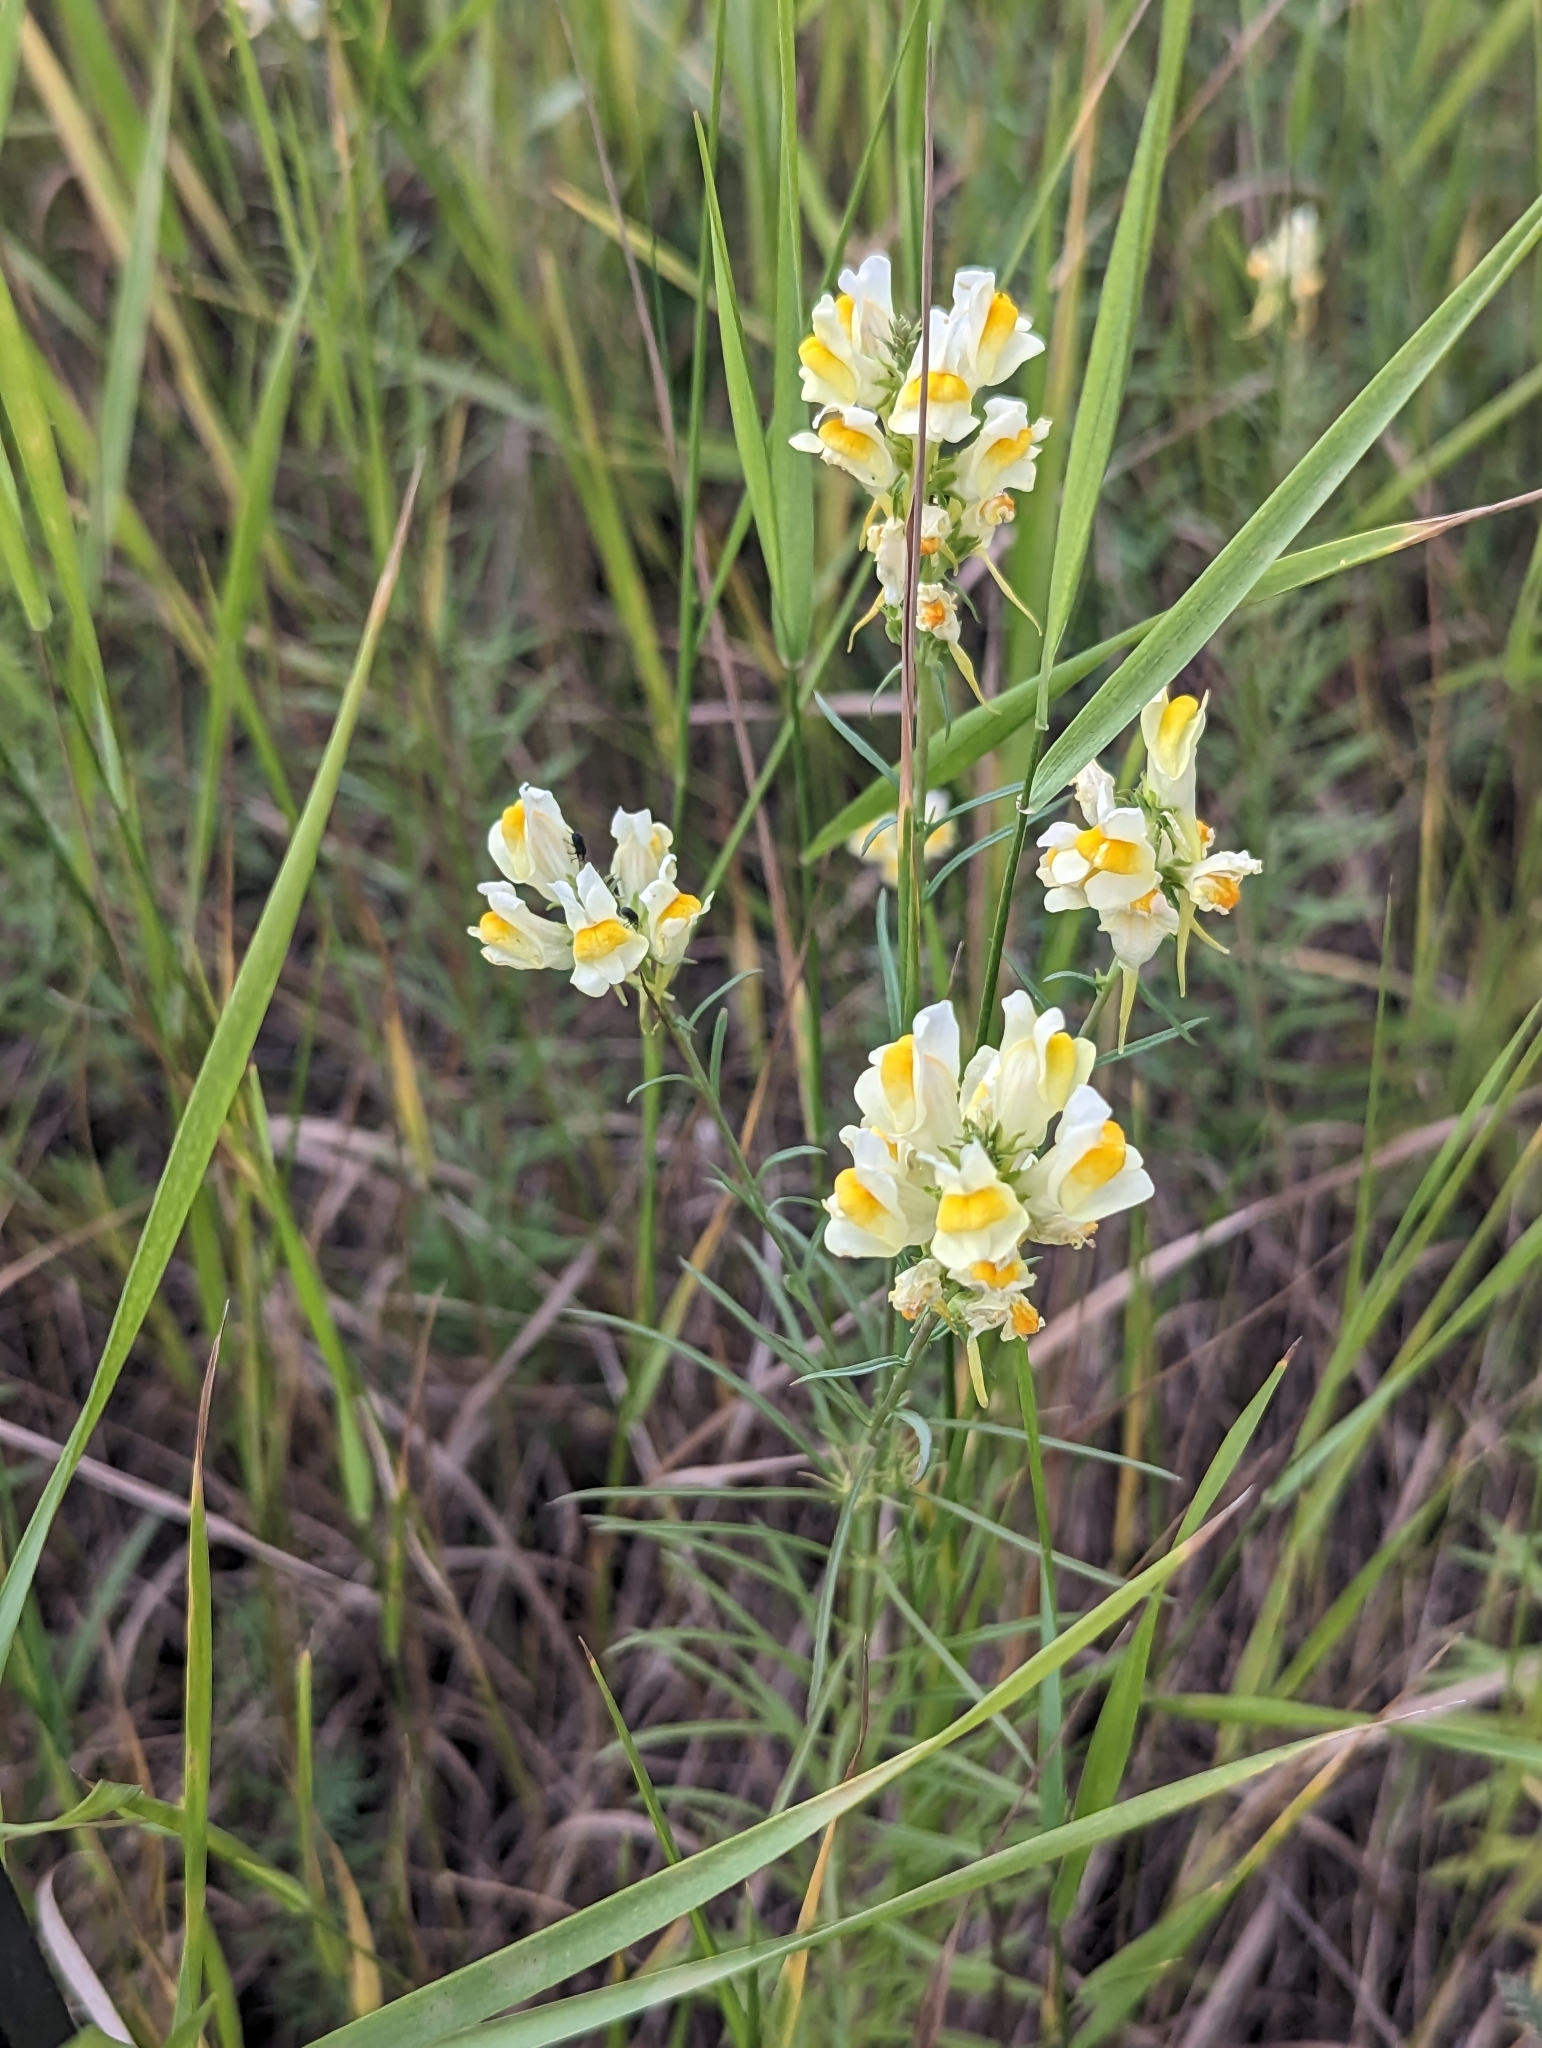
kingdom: Plantae
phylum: Tracheophyta
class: Magnoliopsida
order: Lamiales
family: Plantaginaceae
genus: Linaria
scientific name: Linaria vulgaris
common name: Butter and eggs
